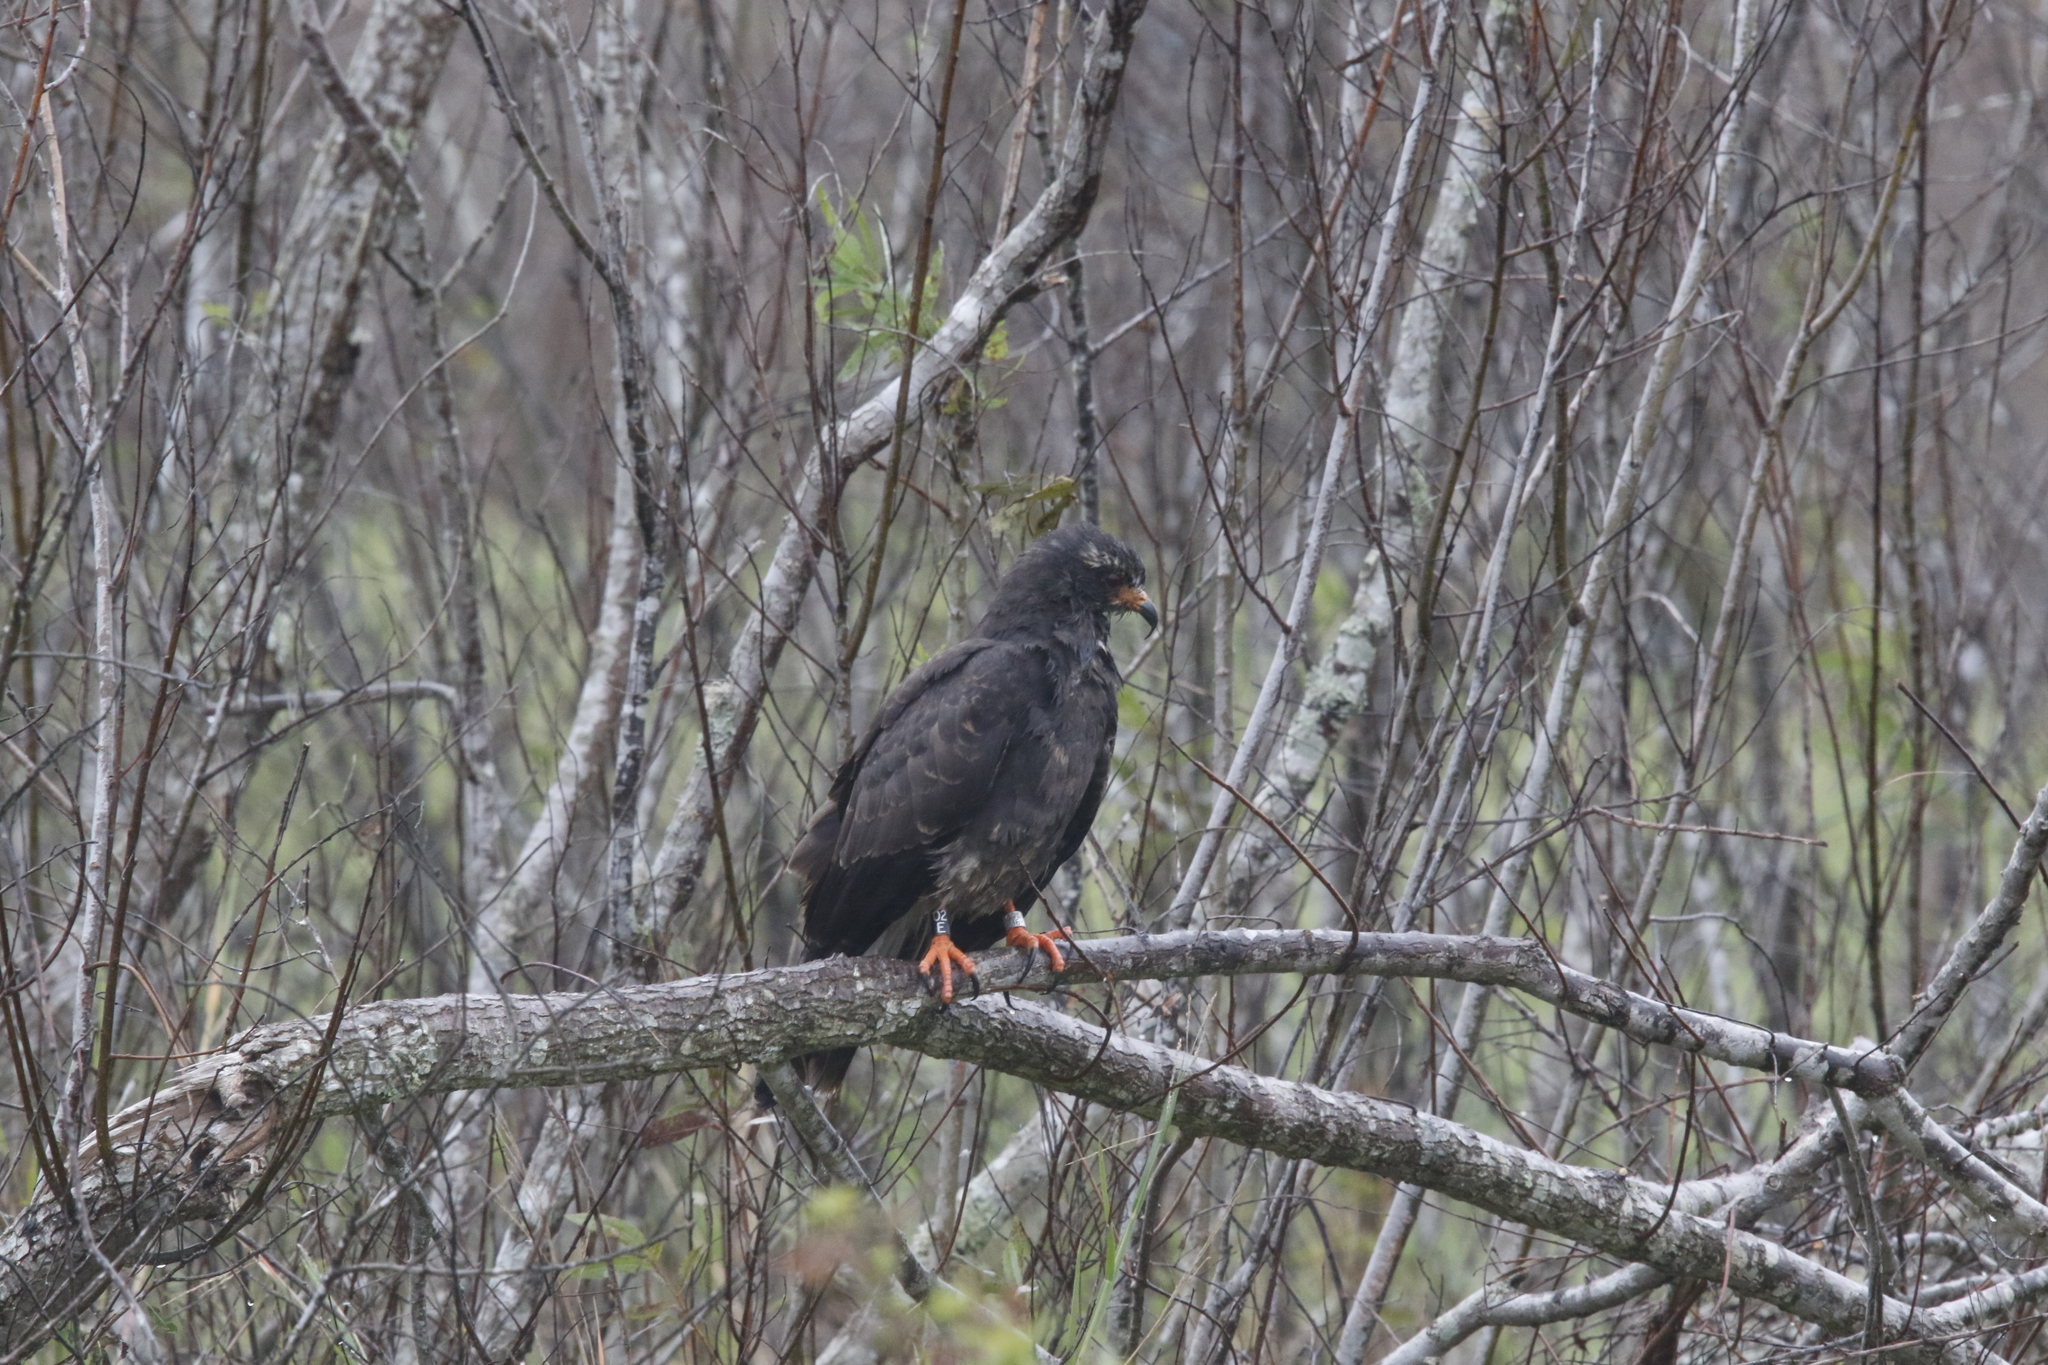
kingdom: Animalia
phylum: Chordata
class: Aves
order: Accipitriformes
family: Accipitridae
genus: Rostrhamus
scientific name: Rostrhamus sociabilis
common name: Snail kite
